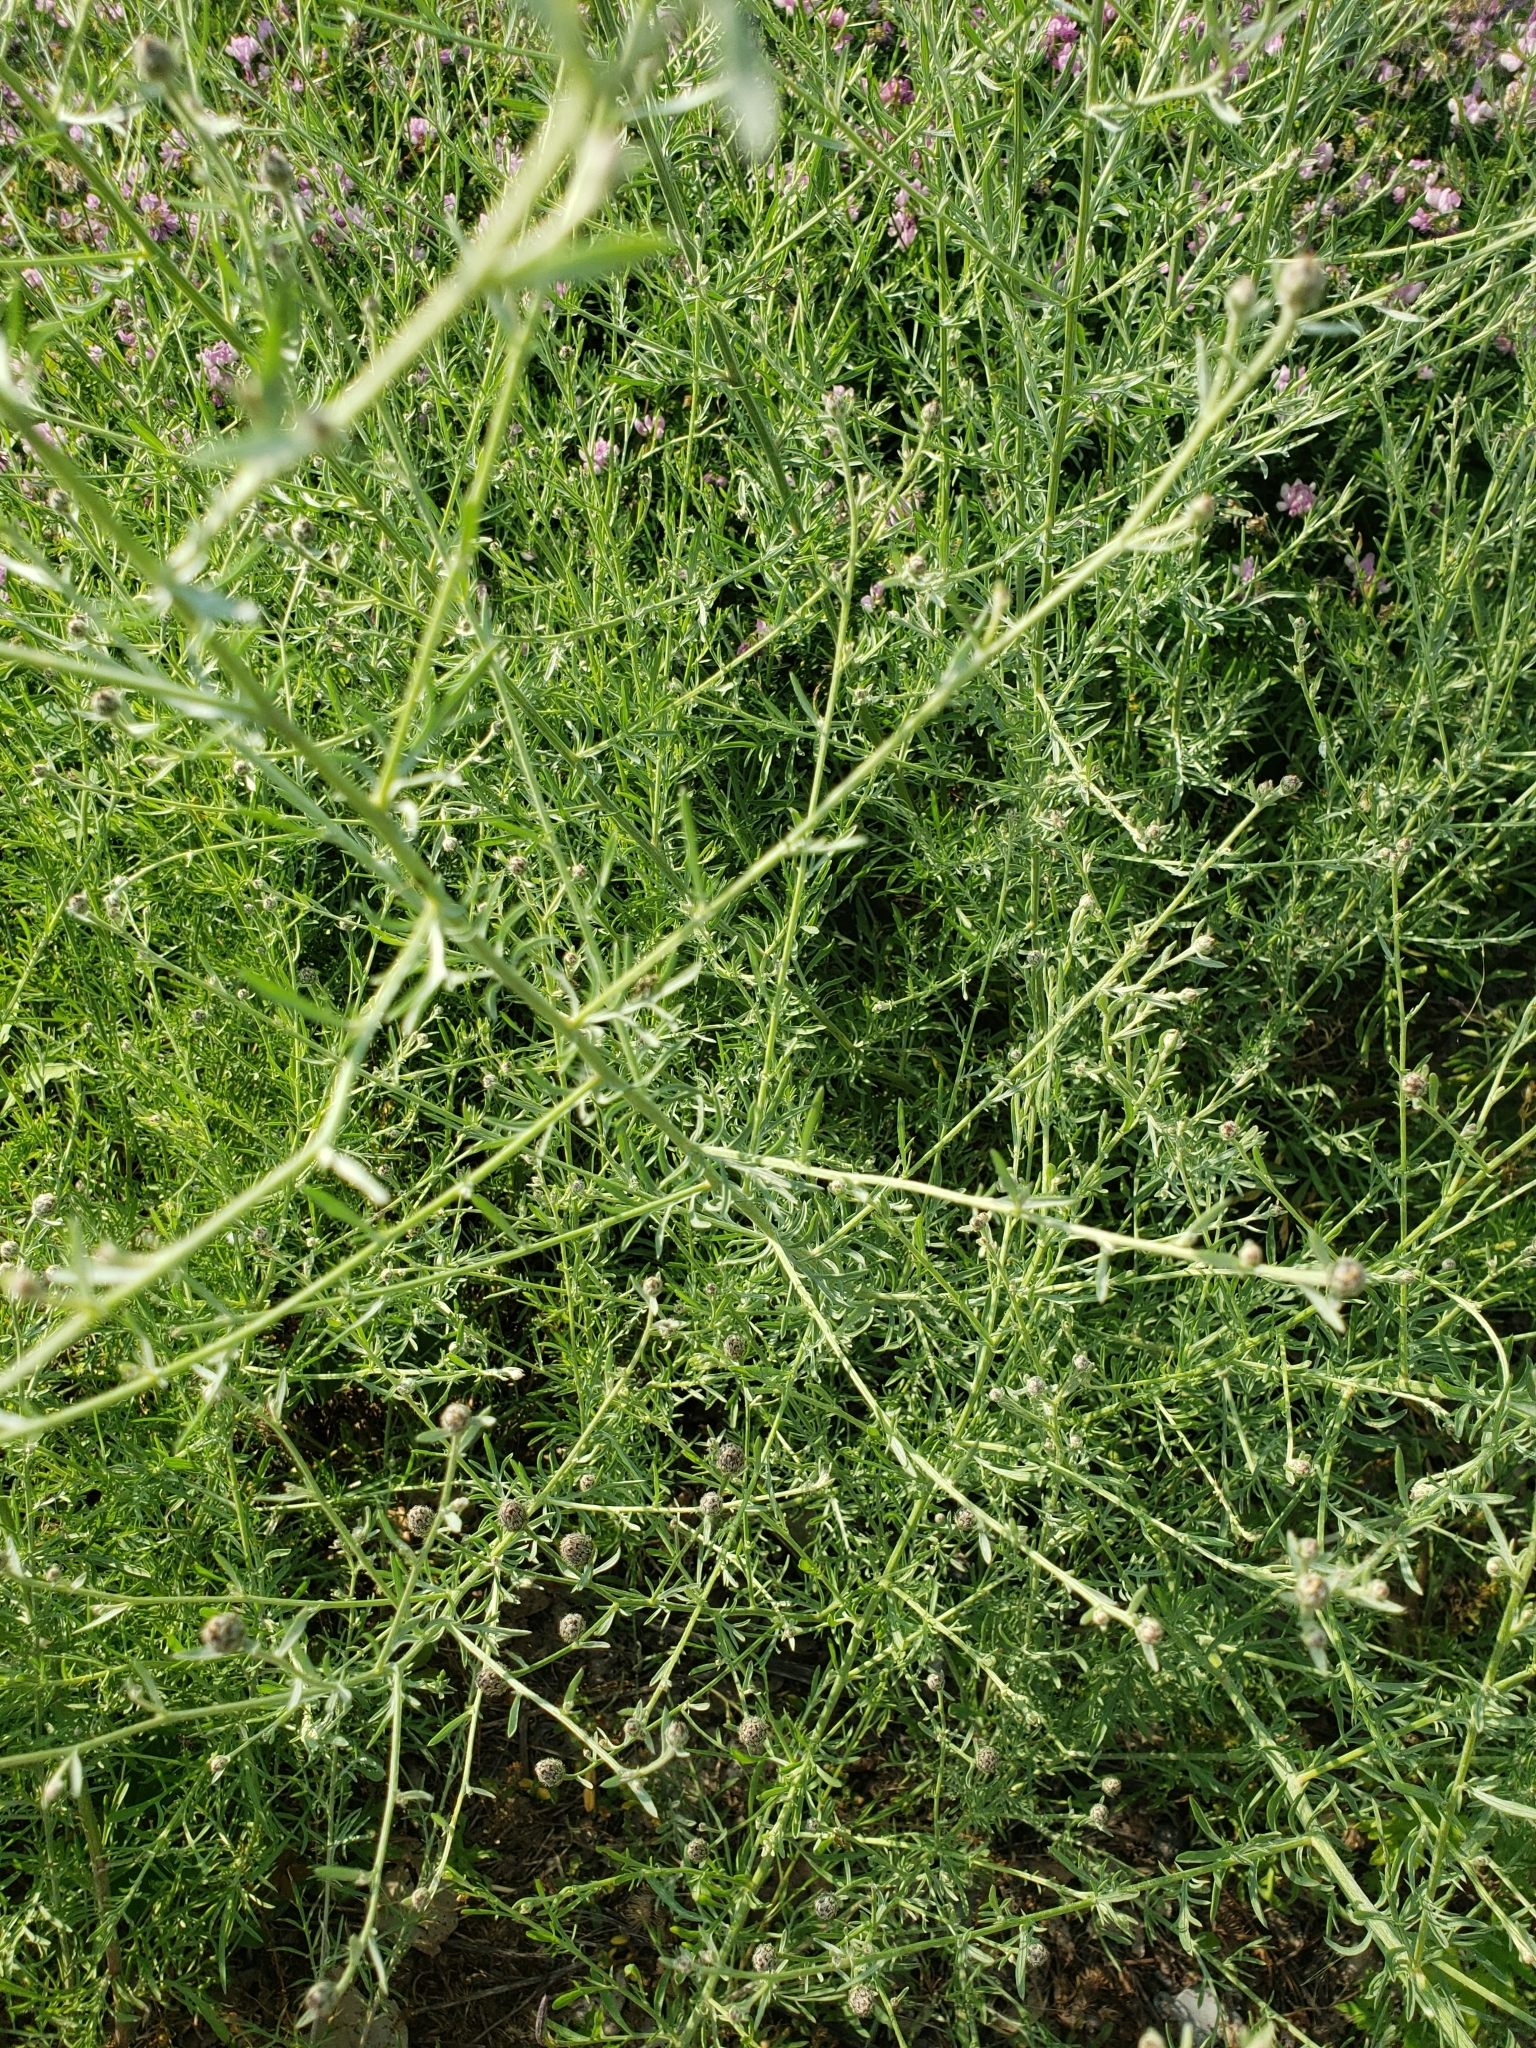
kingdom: Plantae
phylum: Tracheophyta
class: Magnoliopsida
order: Asterales
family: Asteraceae
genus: Centaurea
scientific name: Centaurea stoebe
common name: Spotted knapweed
